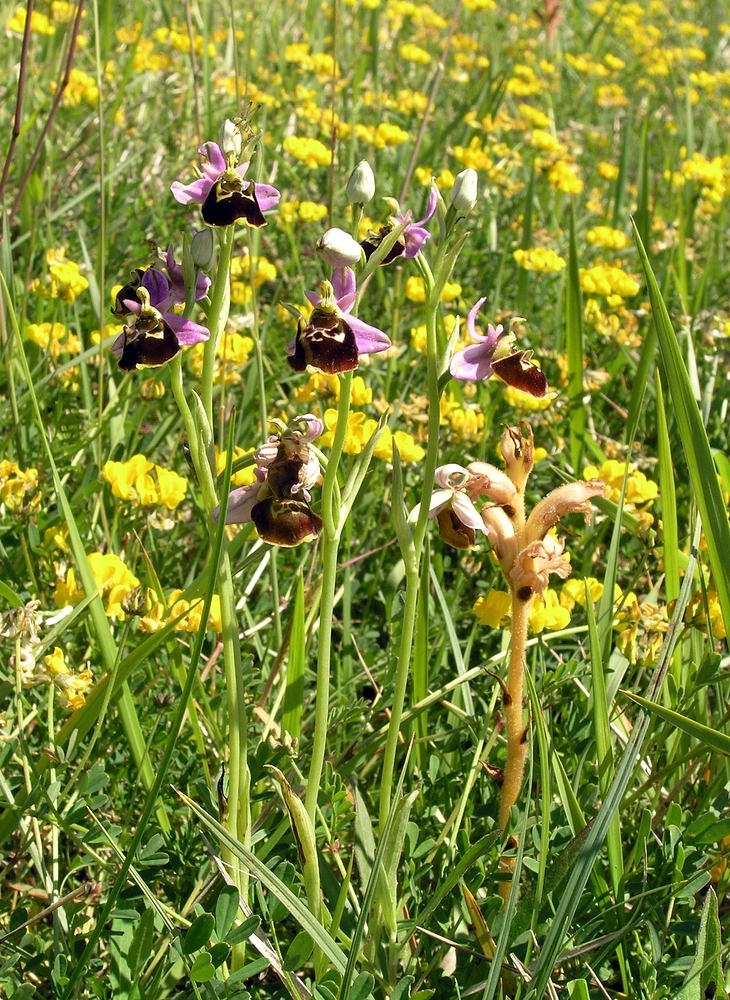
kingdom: Plantae
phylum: Tracheophyta
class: Liliopsida
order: Asparagales
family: Orchidaceae
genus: Ophrys
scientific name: Ophrys holosericea
